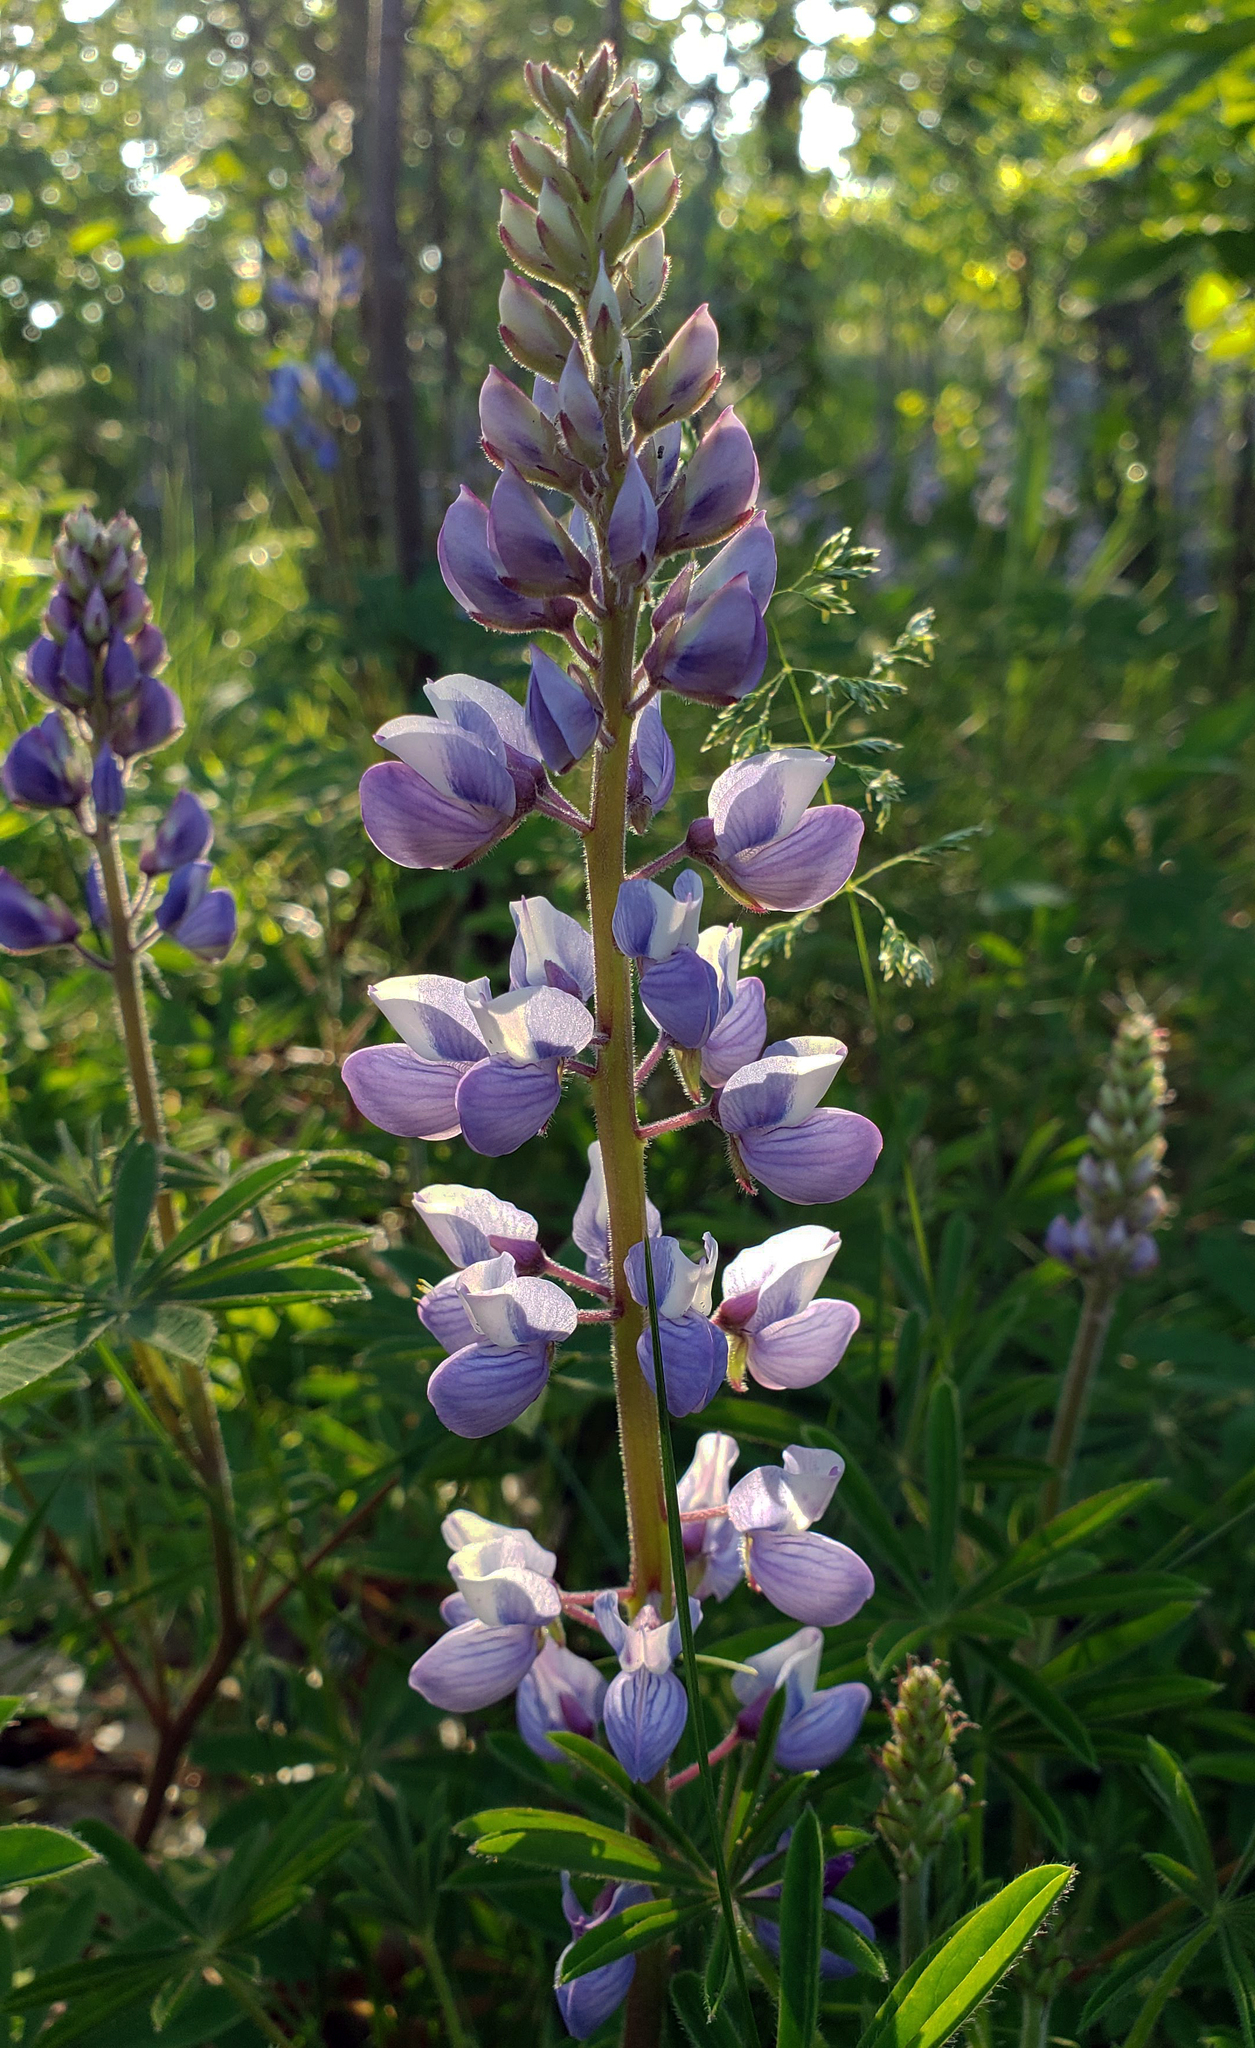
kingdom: Plantae
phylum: Tracheophyta
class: Magnoliopsida
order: Fabales
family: Fabaceae
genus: Lupinus
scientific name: Lupinus perennis
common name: Sundial lupine
